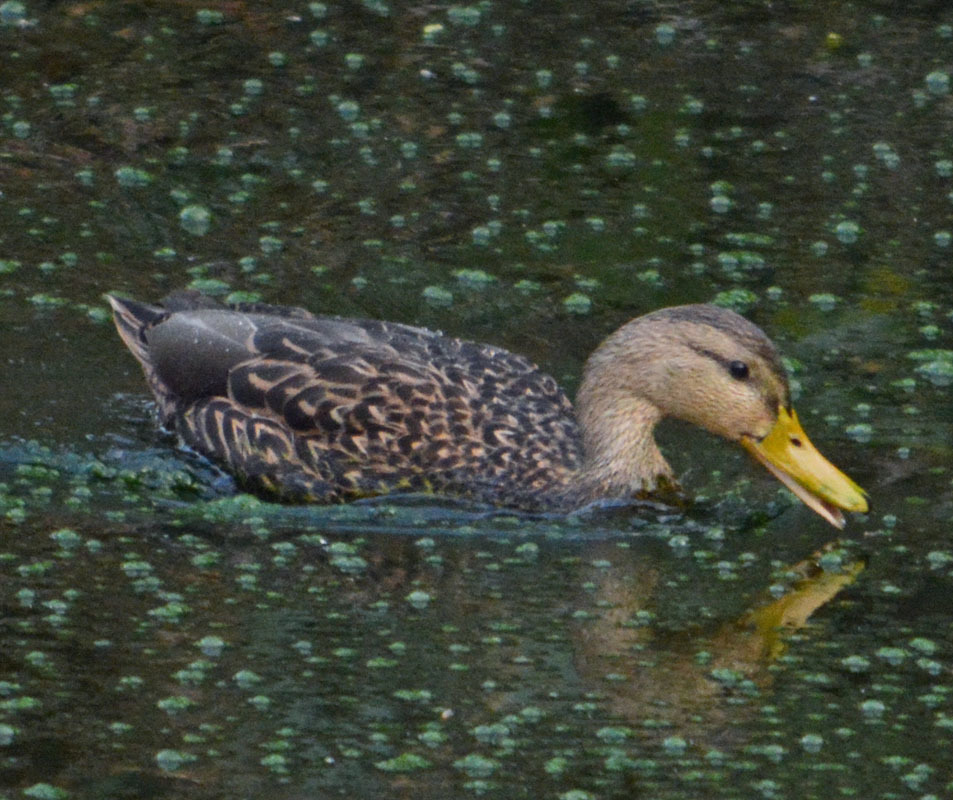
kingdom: Animalia
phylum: Chordata
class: Aves
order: Anseriformes
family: Anatidae
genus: Anas
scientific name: Anas diazi
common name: Mexican duck
